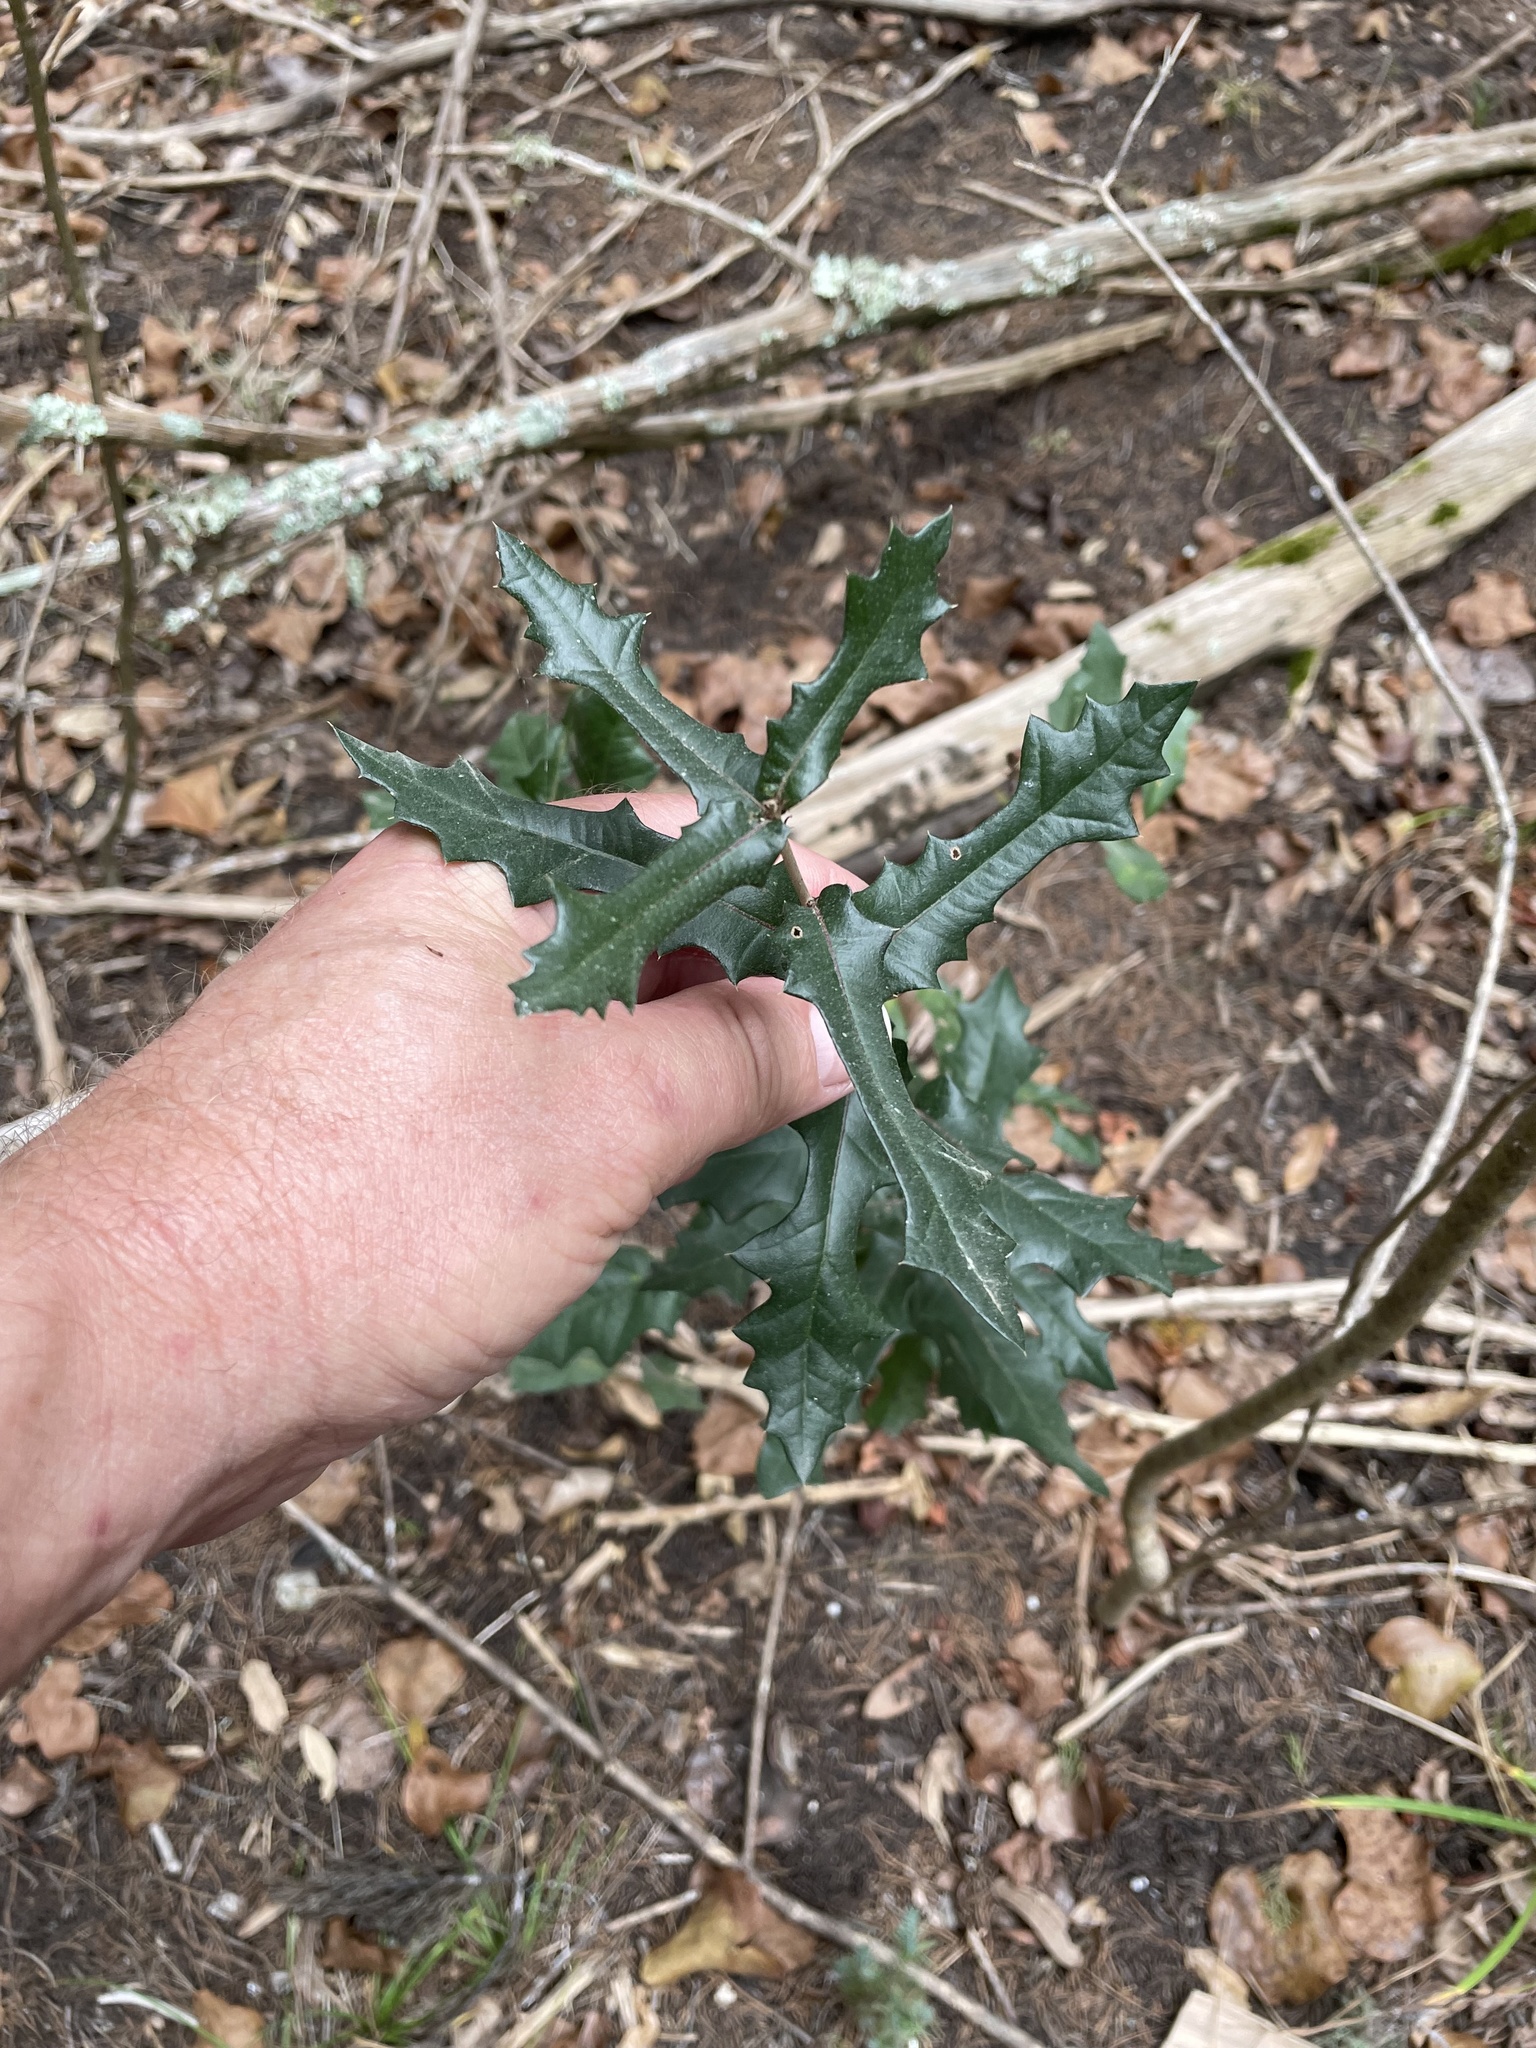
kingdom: Plantae
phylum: Tracheophyta
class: Magnoliopsida
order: Fagales
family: Fagaceae
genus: Quercus
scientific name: Quercus fusiformis
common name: Texas live oak
